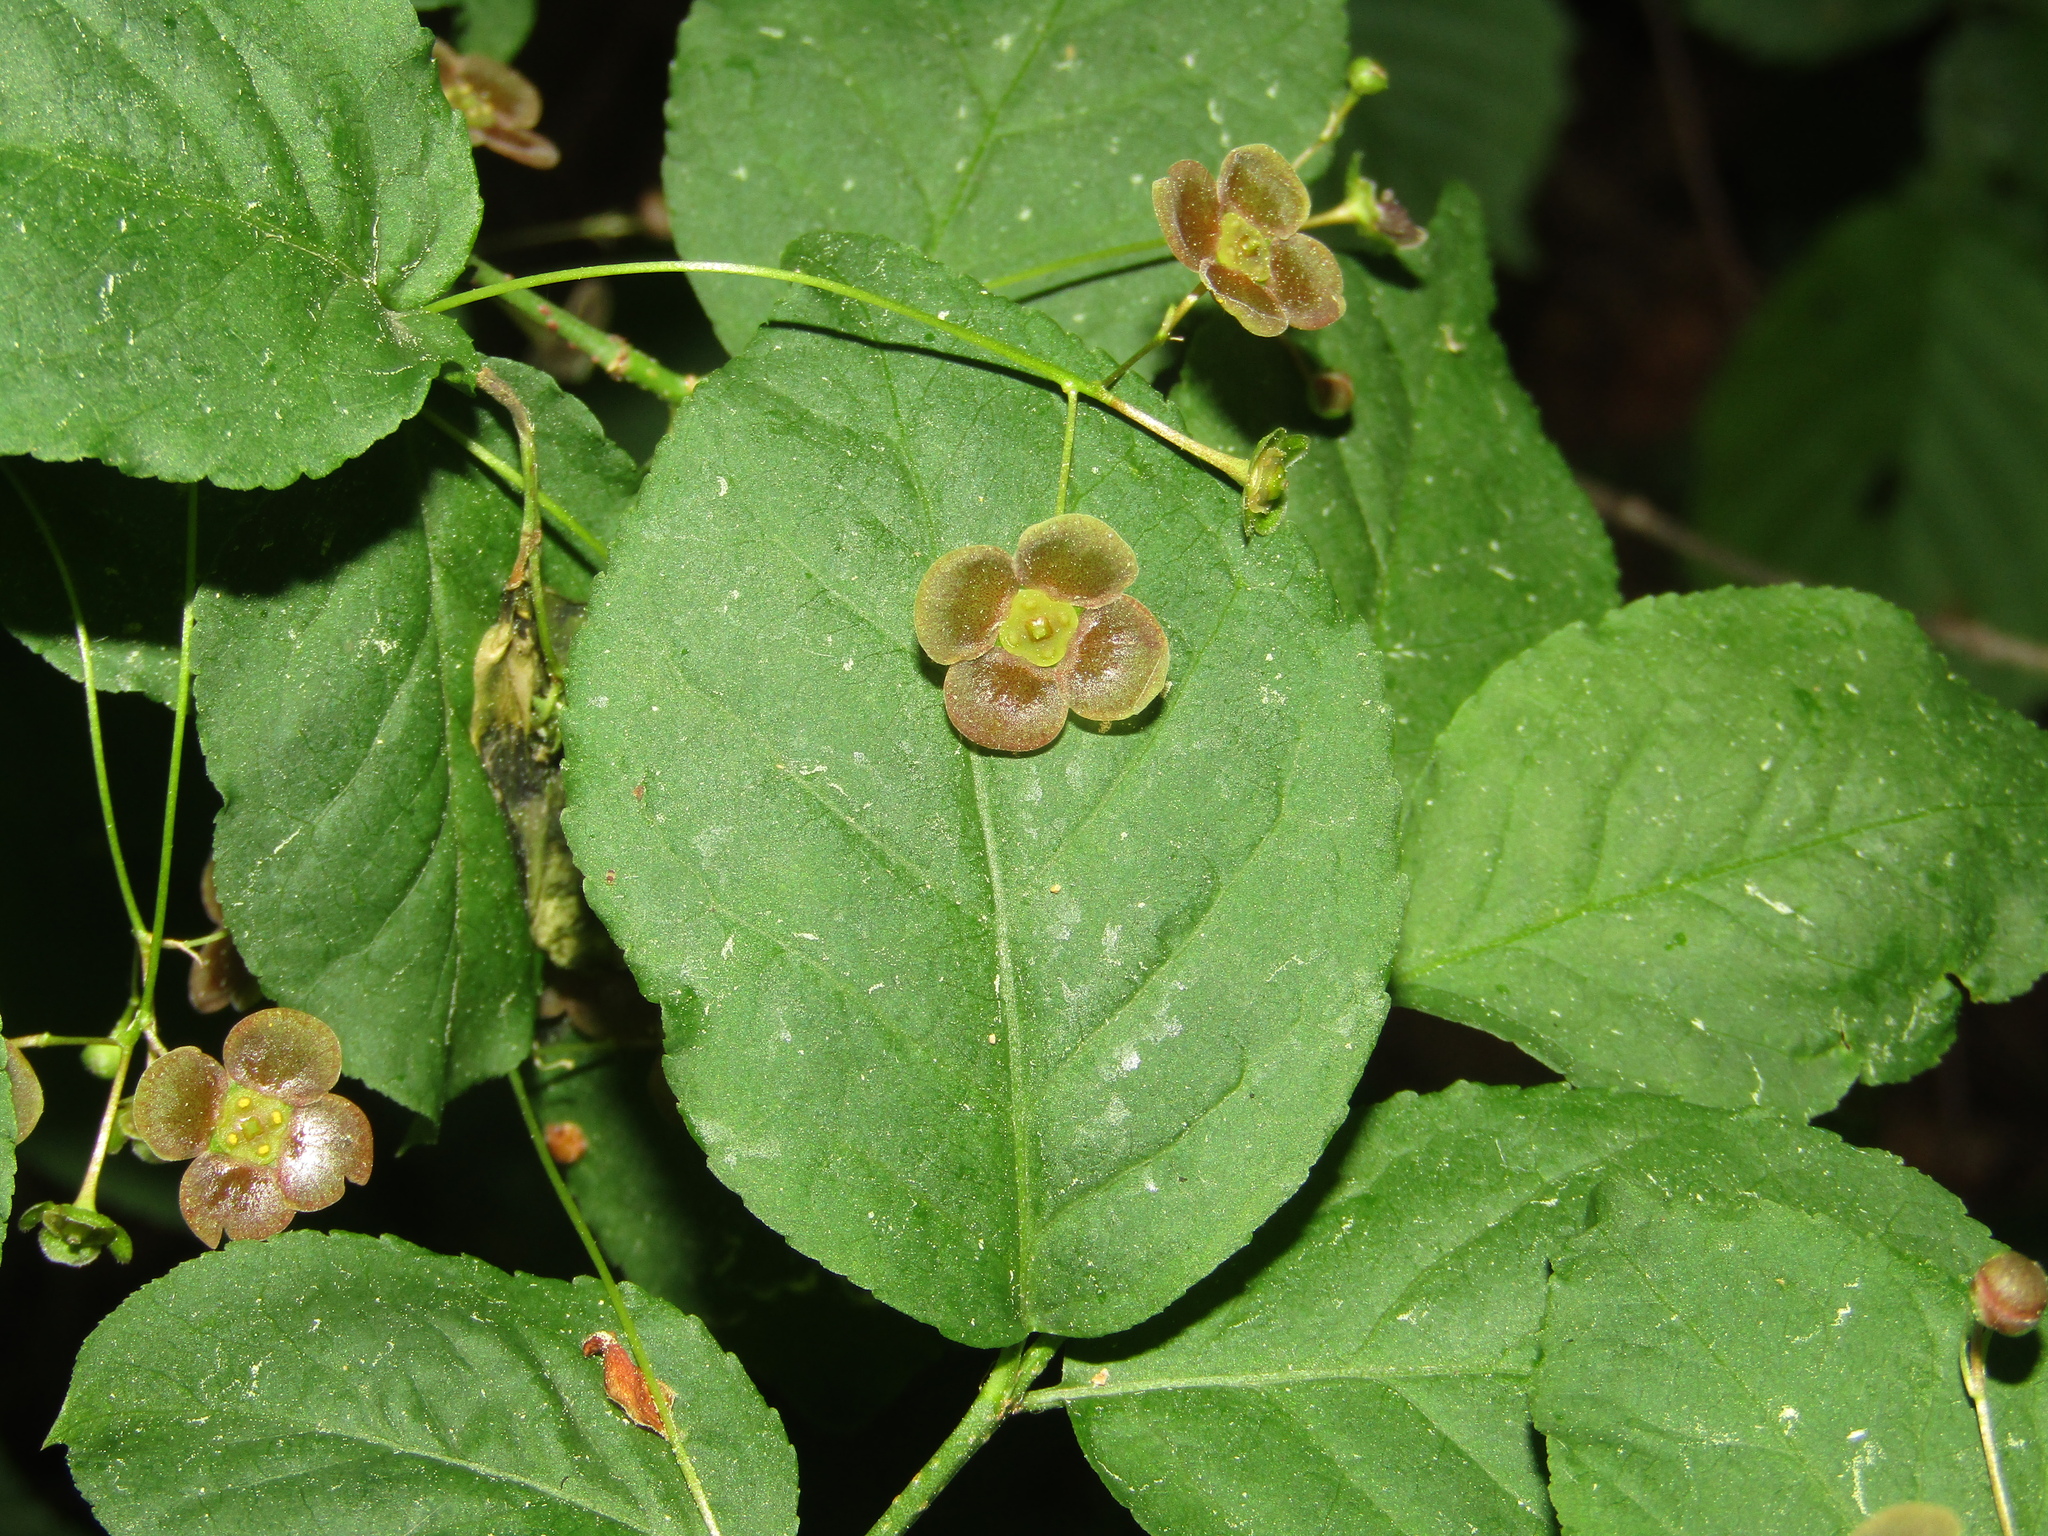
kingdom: Plantae
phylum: Tracheophyta
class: Magnoliopsida
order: Celastrales
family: Celastraceae
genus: Euonymus
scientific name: Euonymus verrucosus
